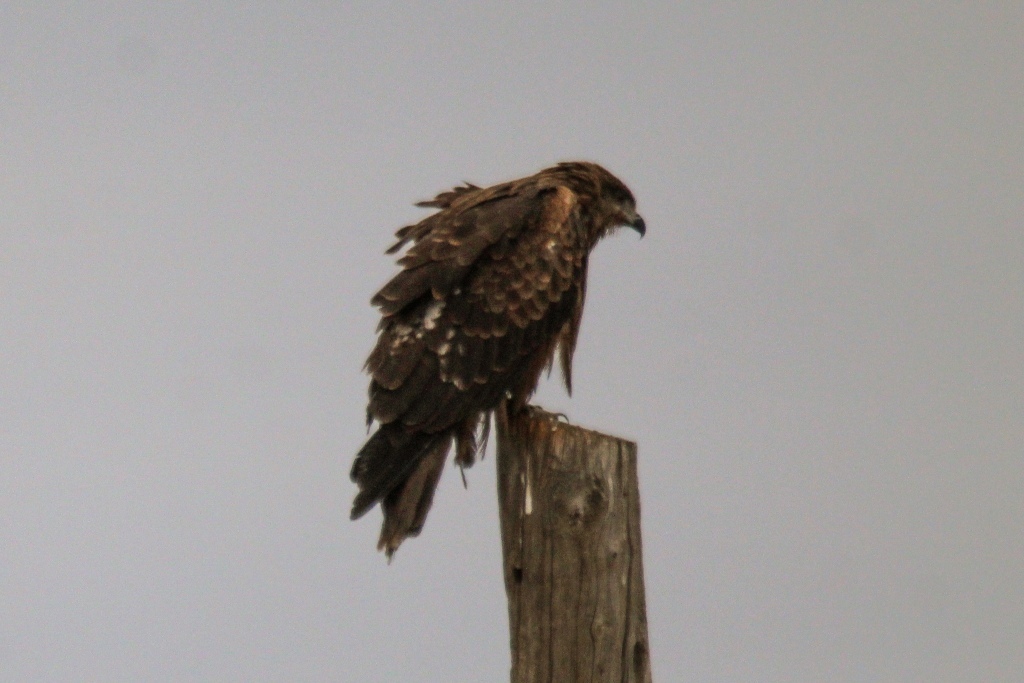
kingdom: Animalia
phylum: Chordata
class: Aves
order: Accipitriformes
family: Accipitridae
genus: Milvus
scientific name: Milvus migrans
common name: Black kite
